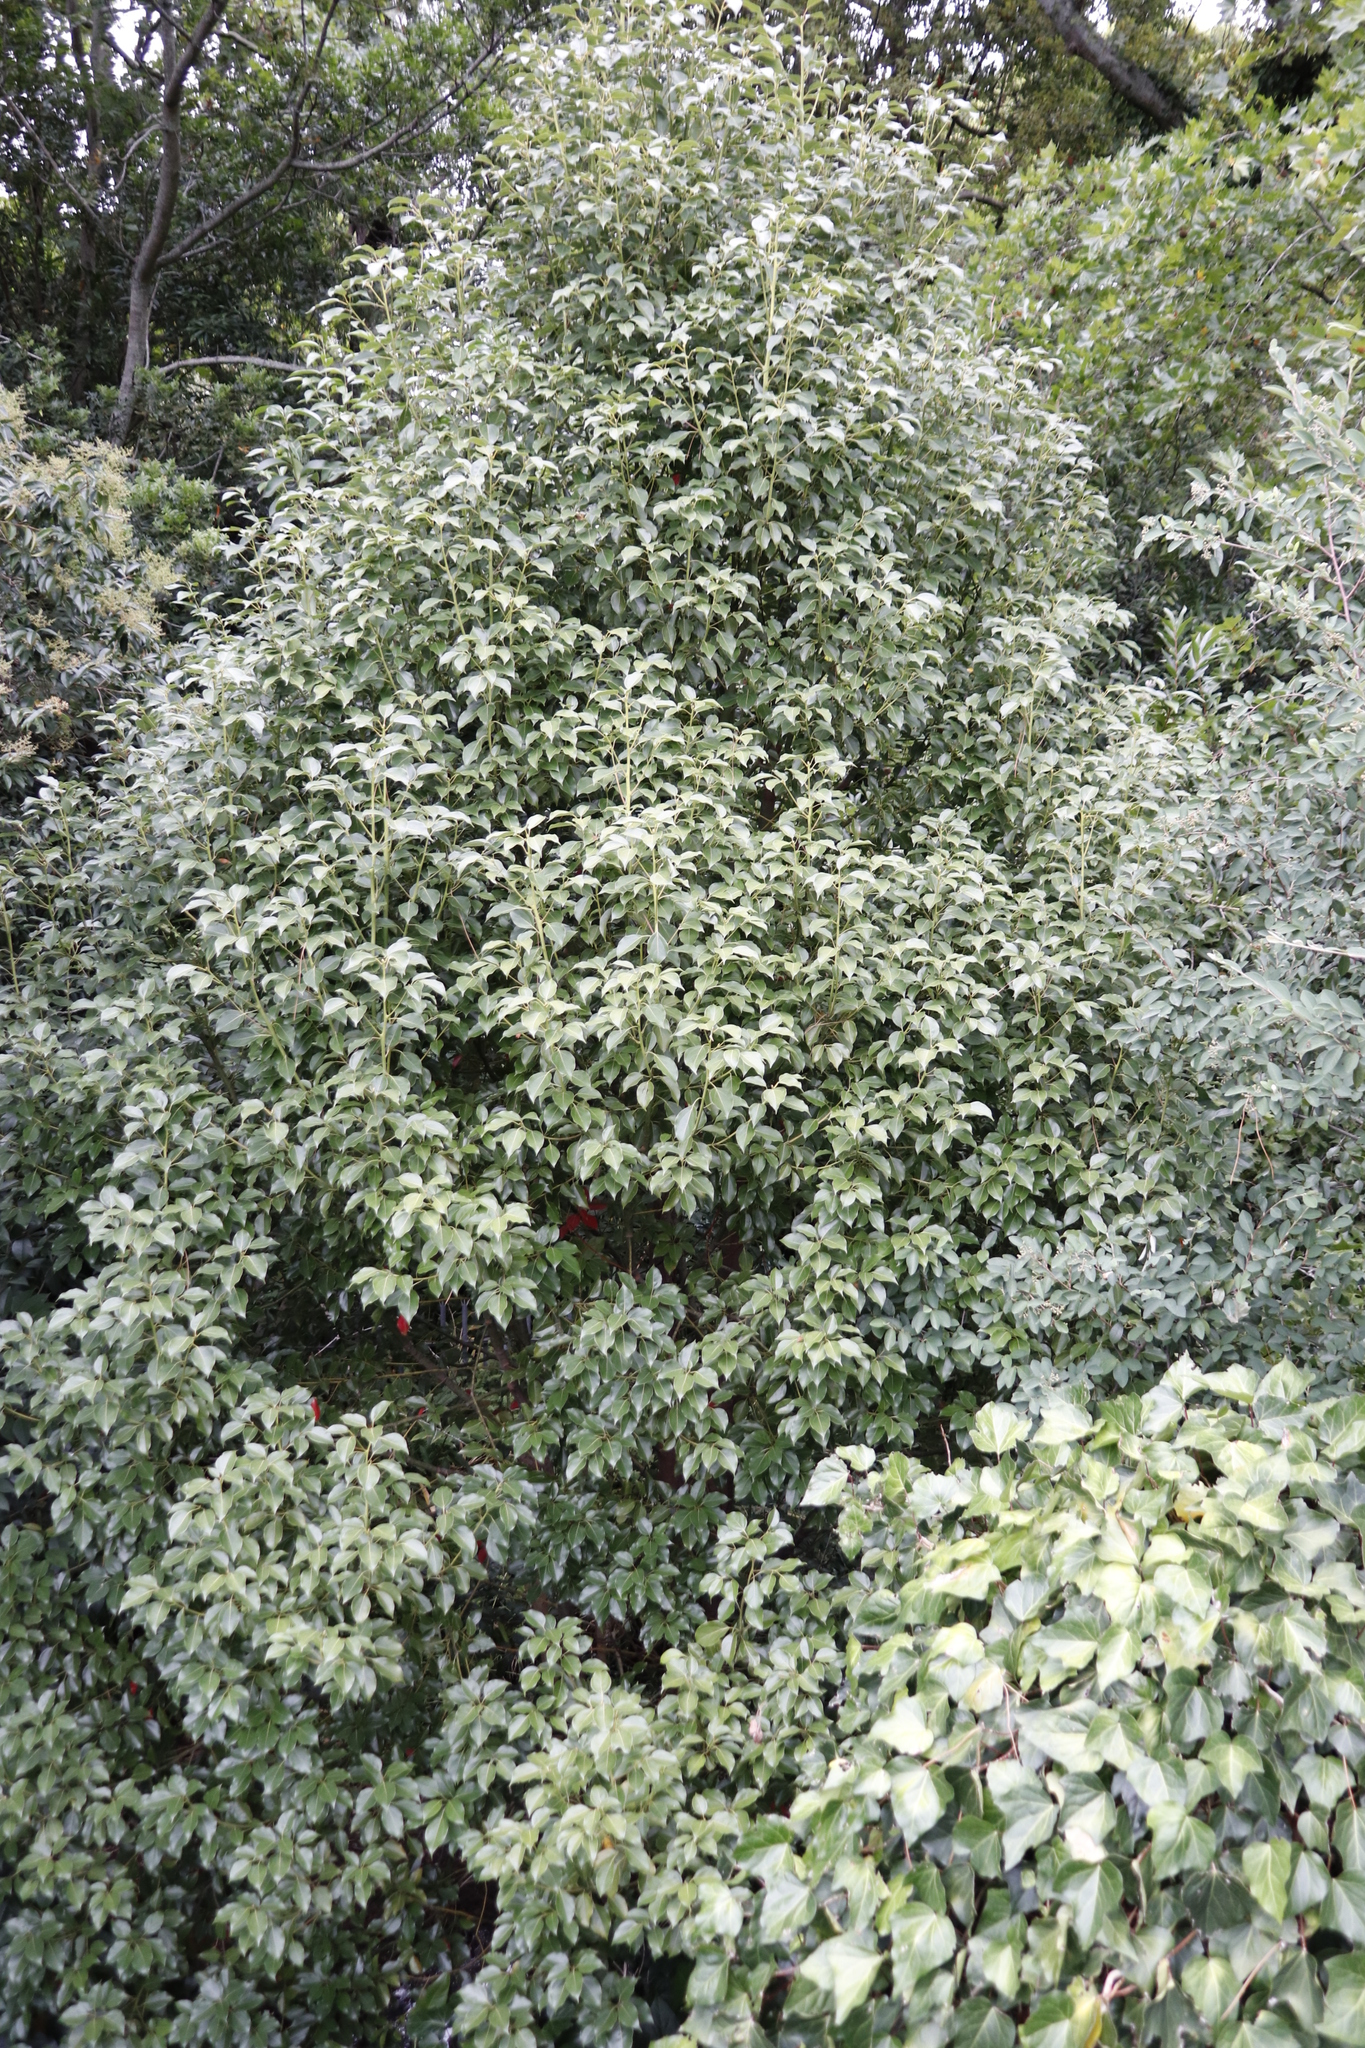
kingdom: Plantae
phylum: Tracheophyta
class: Magnoliopsida
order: Laurales
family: Lauraceae
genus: Cinnamomum
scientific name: Cinnamomum camphora
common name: Camphortree
